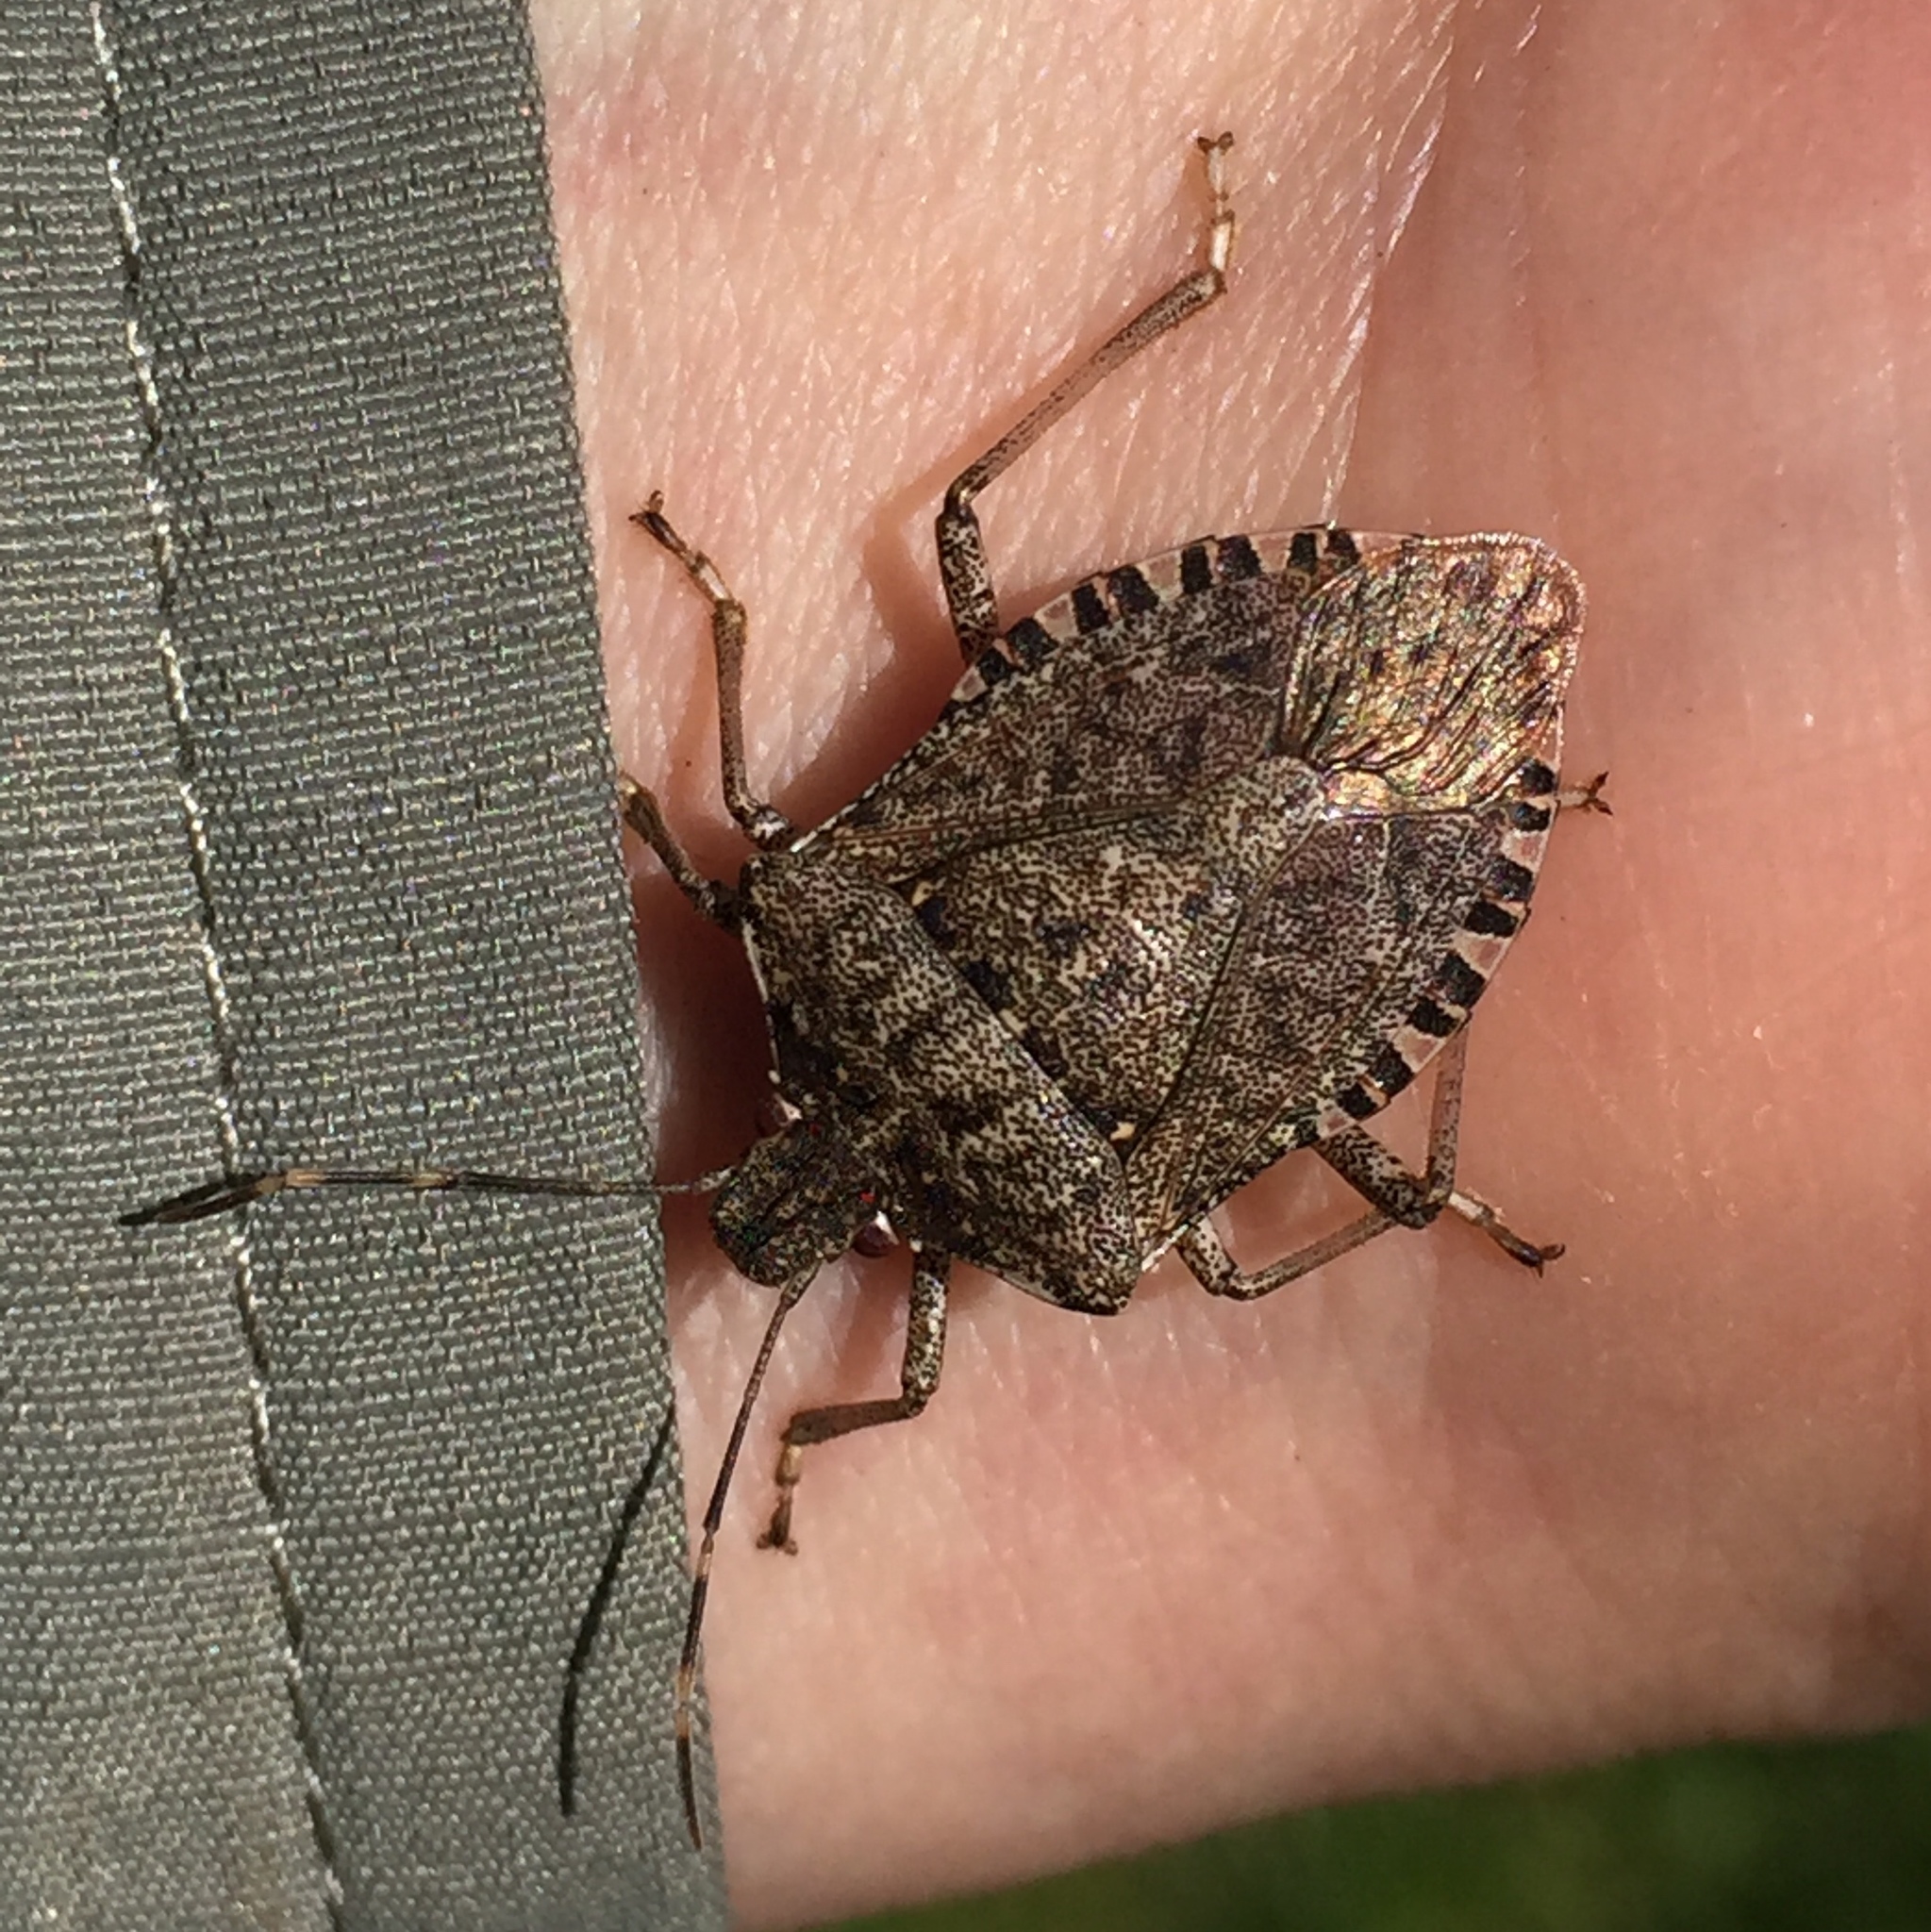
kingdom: Animalia
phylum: Arthropoda
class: Insecta
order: Hemiptera
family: Pentatomidae
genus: Halyomorpha
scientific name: Halyomorpha halys
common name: Brown marmorated stink bug
